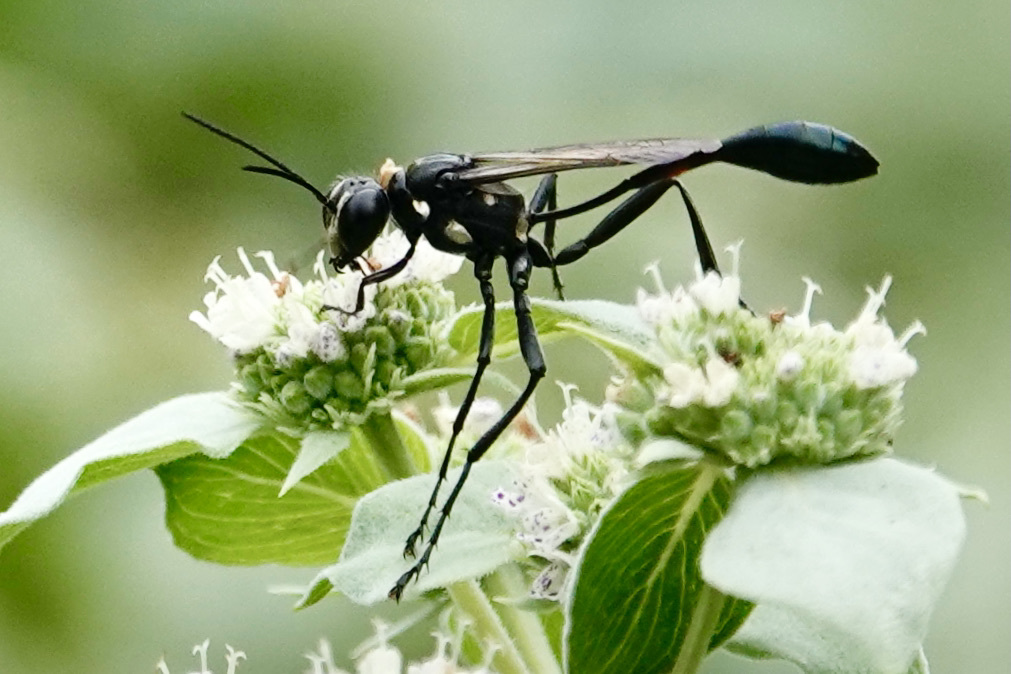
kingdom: Animalia
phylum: Arthropoda
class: Insecta
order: Hymenoptera
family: Sphecidae
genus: Eremnophila
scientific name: Eremnophila aureonotata
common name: Gold-marked thread-waisted wasp
